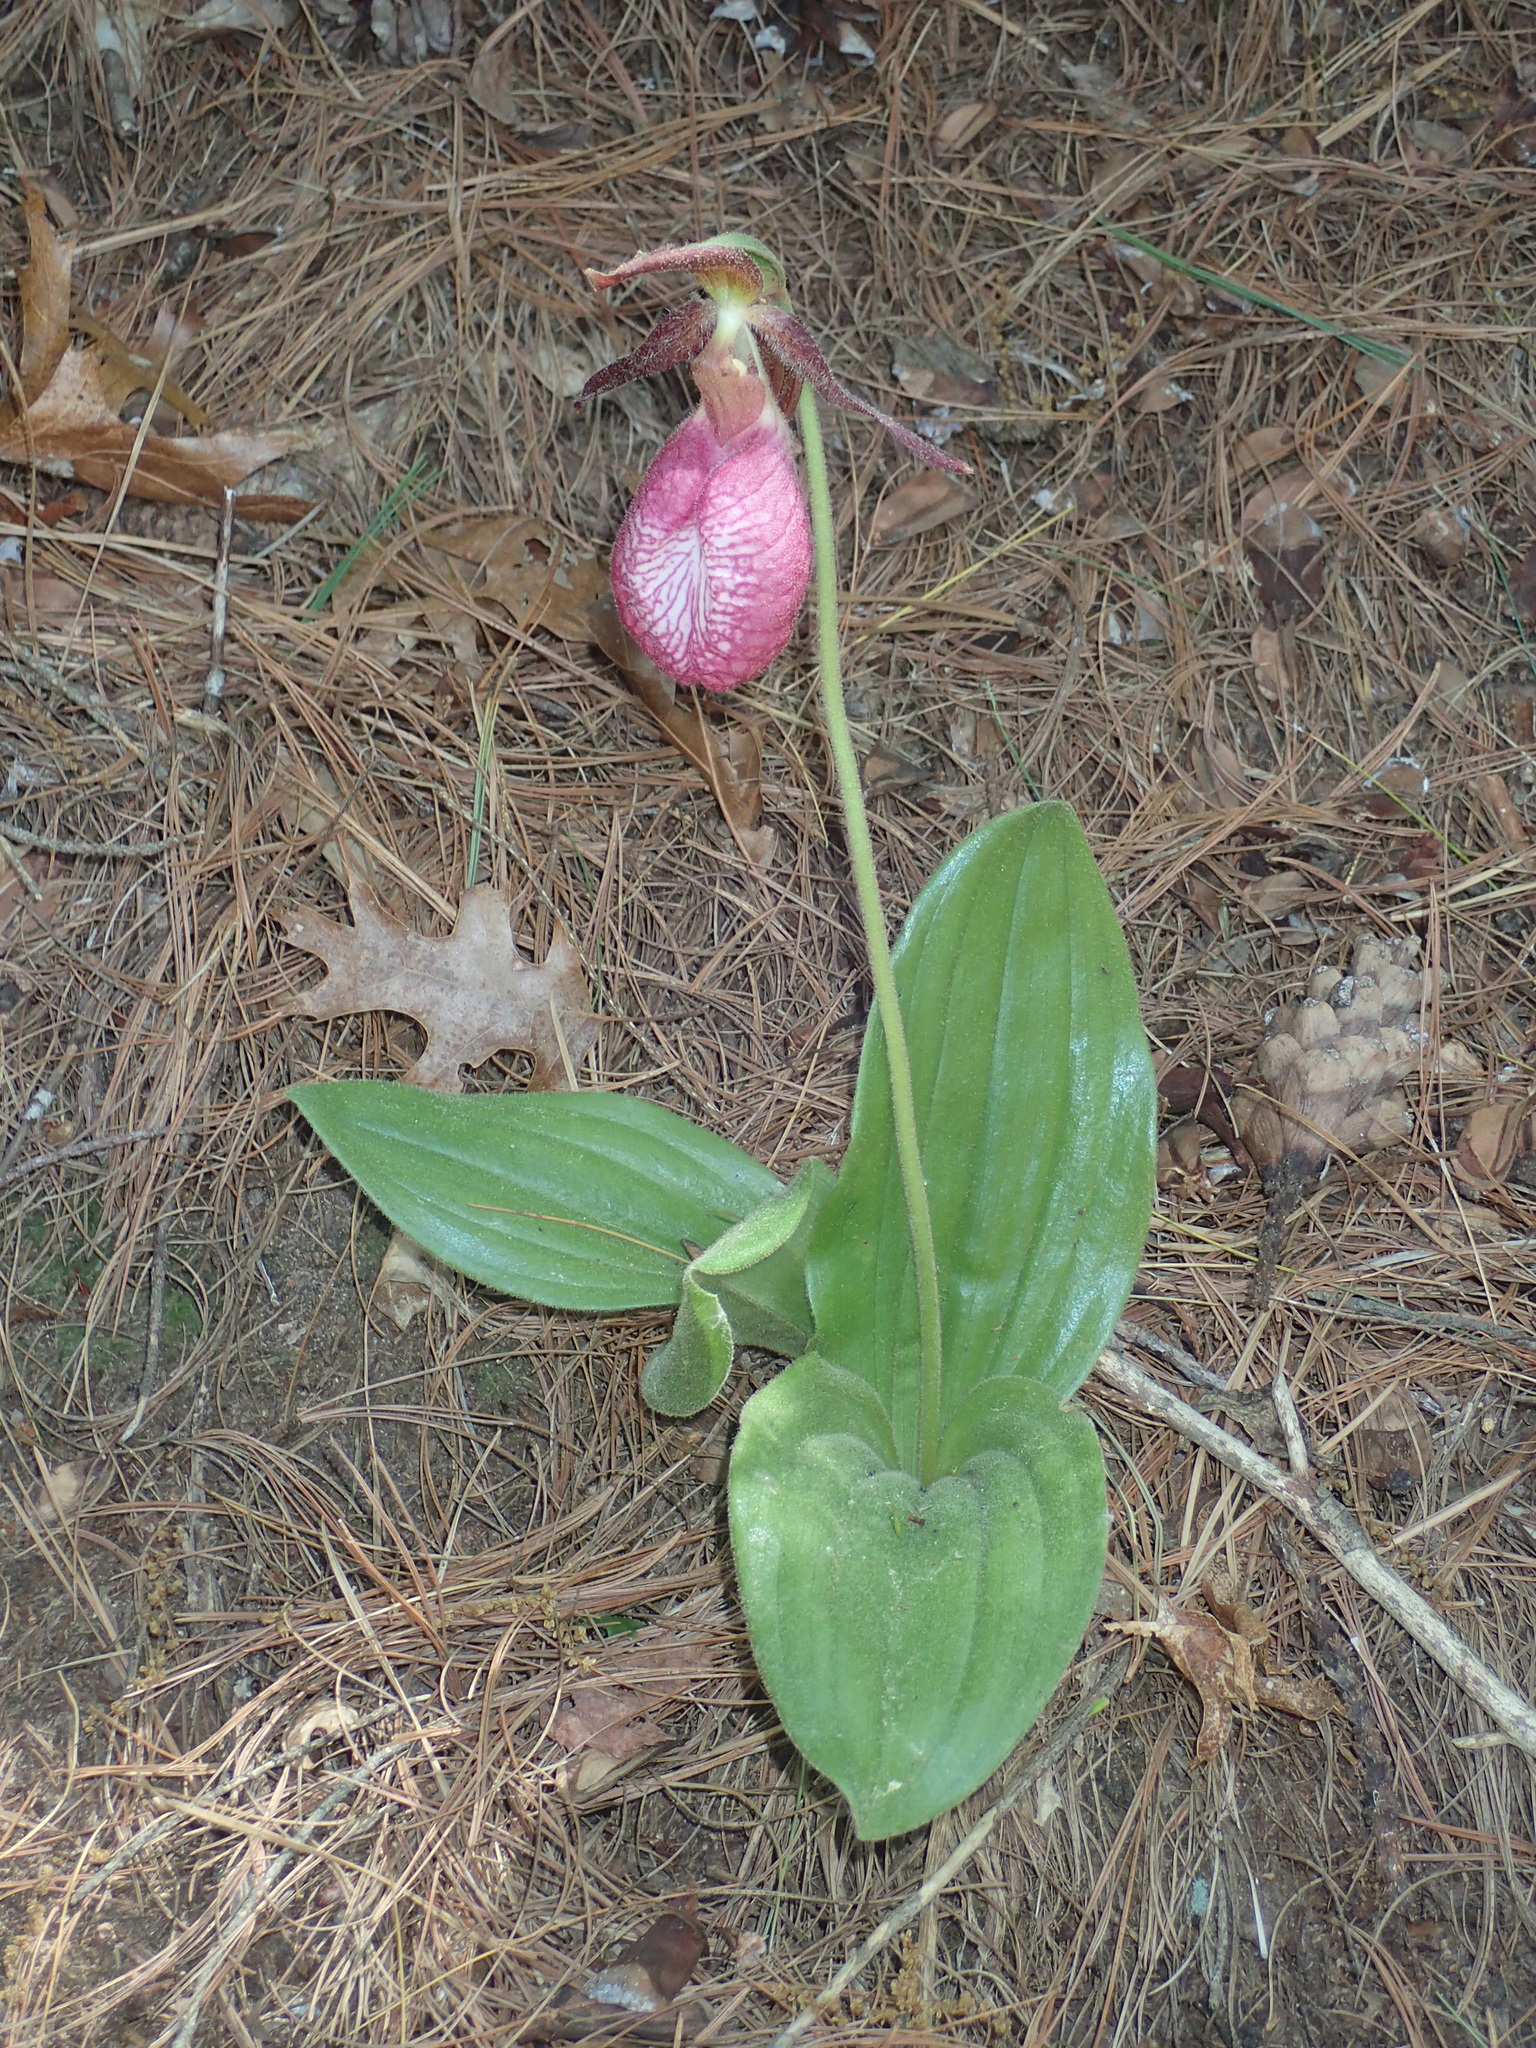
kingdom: Plantae
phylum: Tracheophyta
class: Liliopsida
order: Asparagales
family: Orchidaceae
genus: Cypripedium
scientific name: Cypripedium acaule
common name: Pink lady's-slipper
